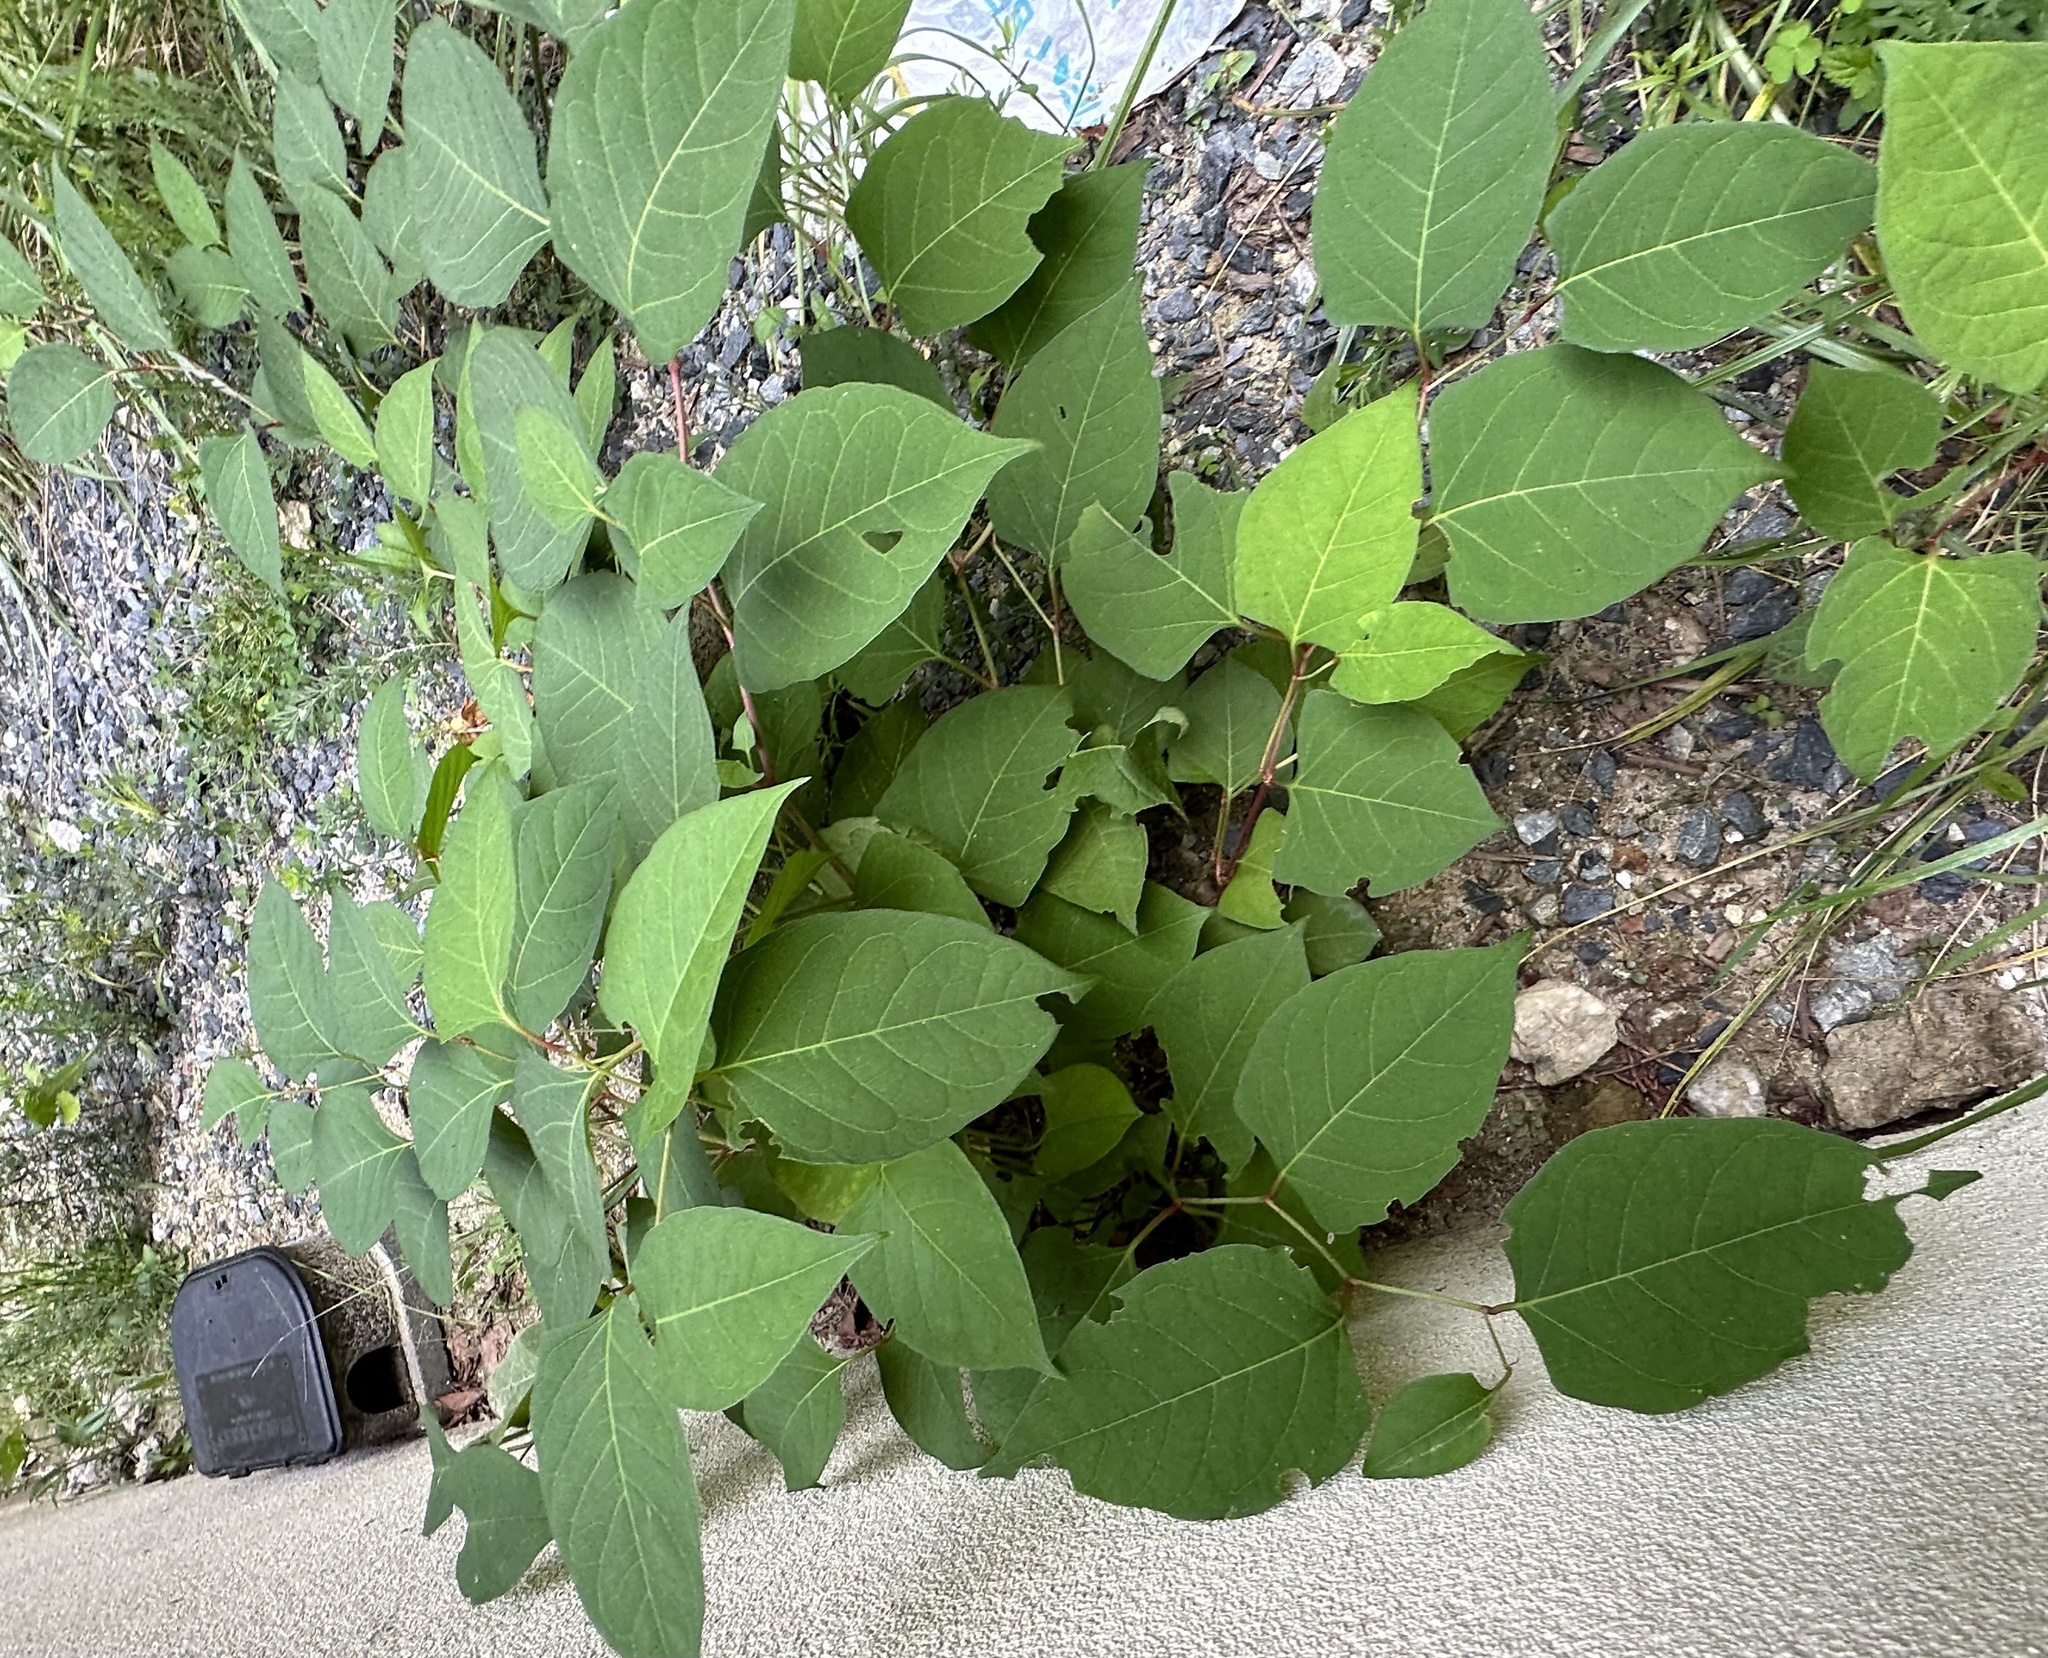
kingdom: Plantae
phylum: Tracheophyta
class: Magnoliopsida
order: Caryophyllales
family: Polygonaceae
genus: Reynoutria
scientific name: Reynoutria japonica
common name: Japanese knotweed
